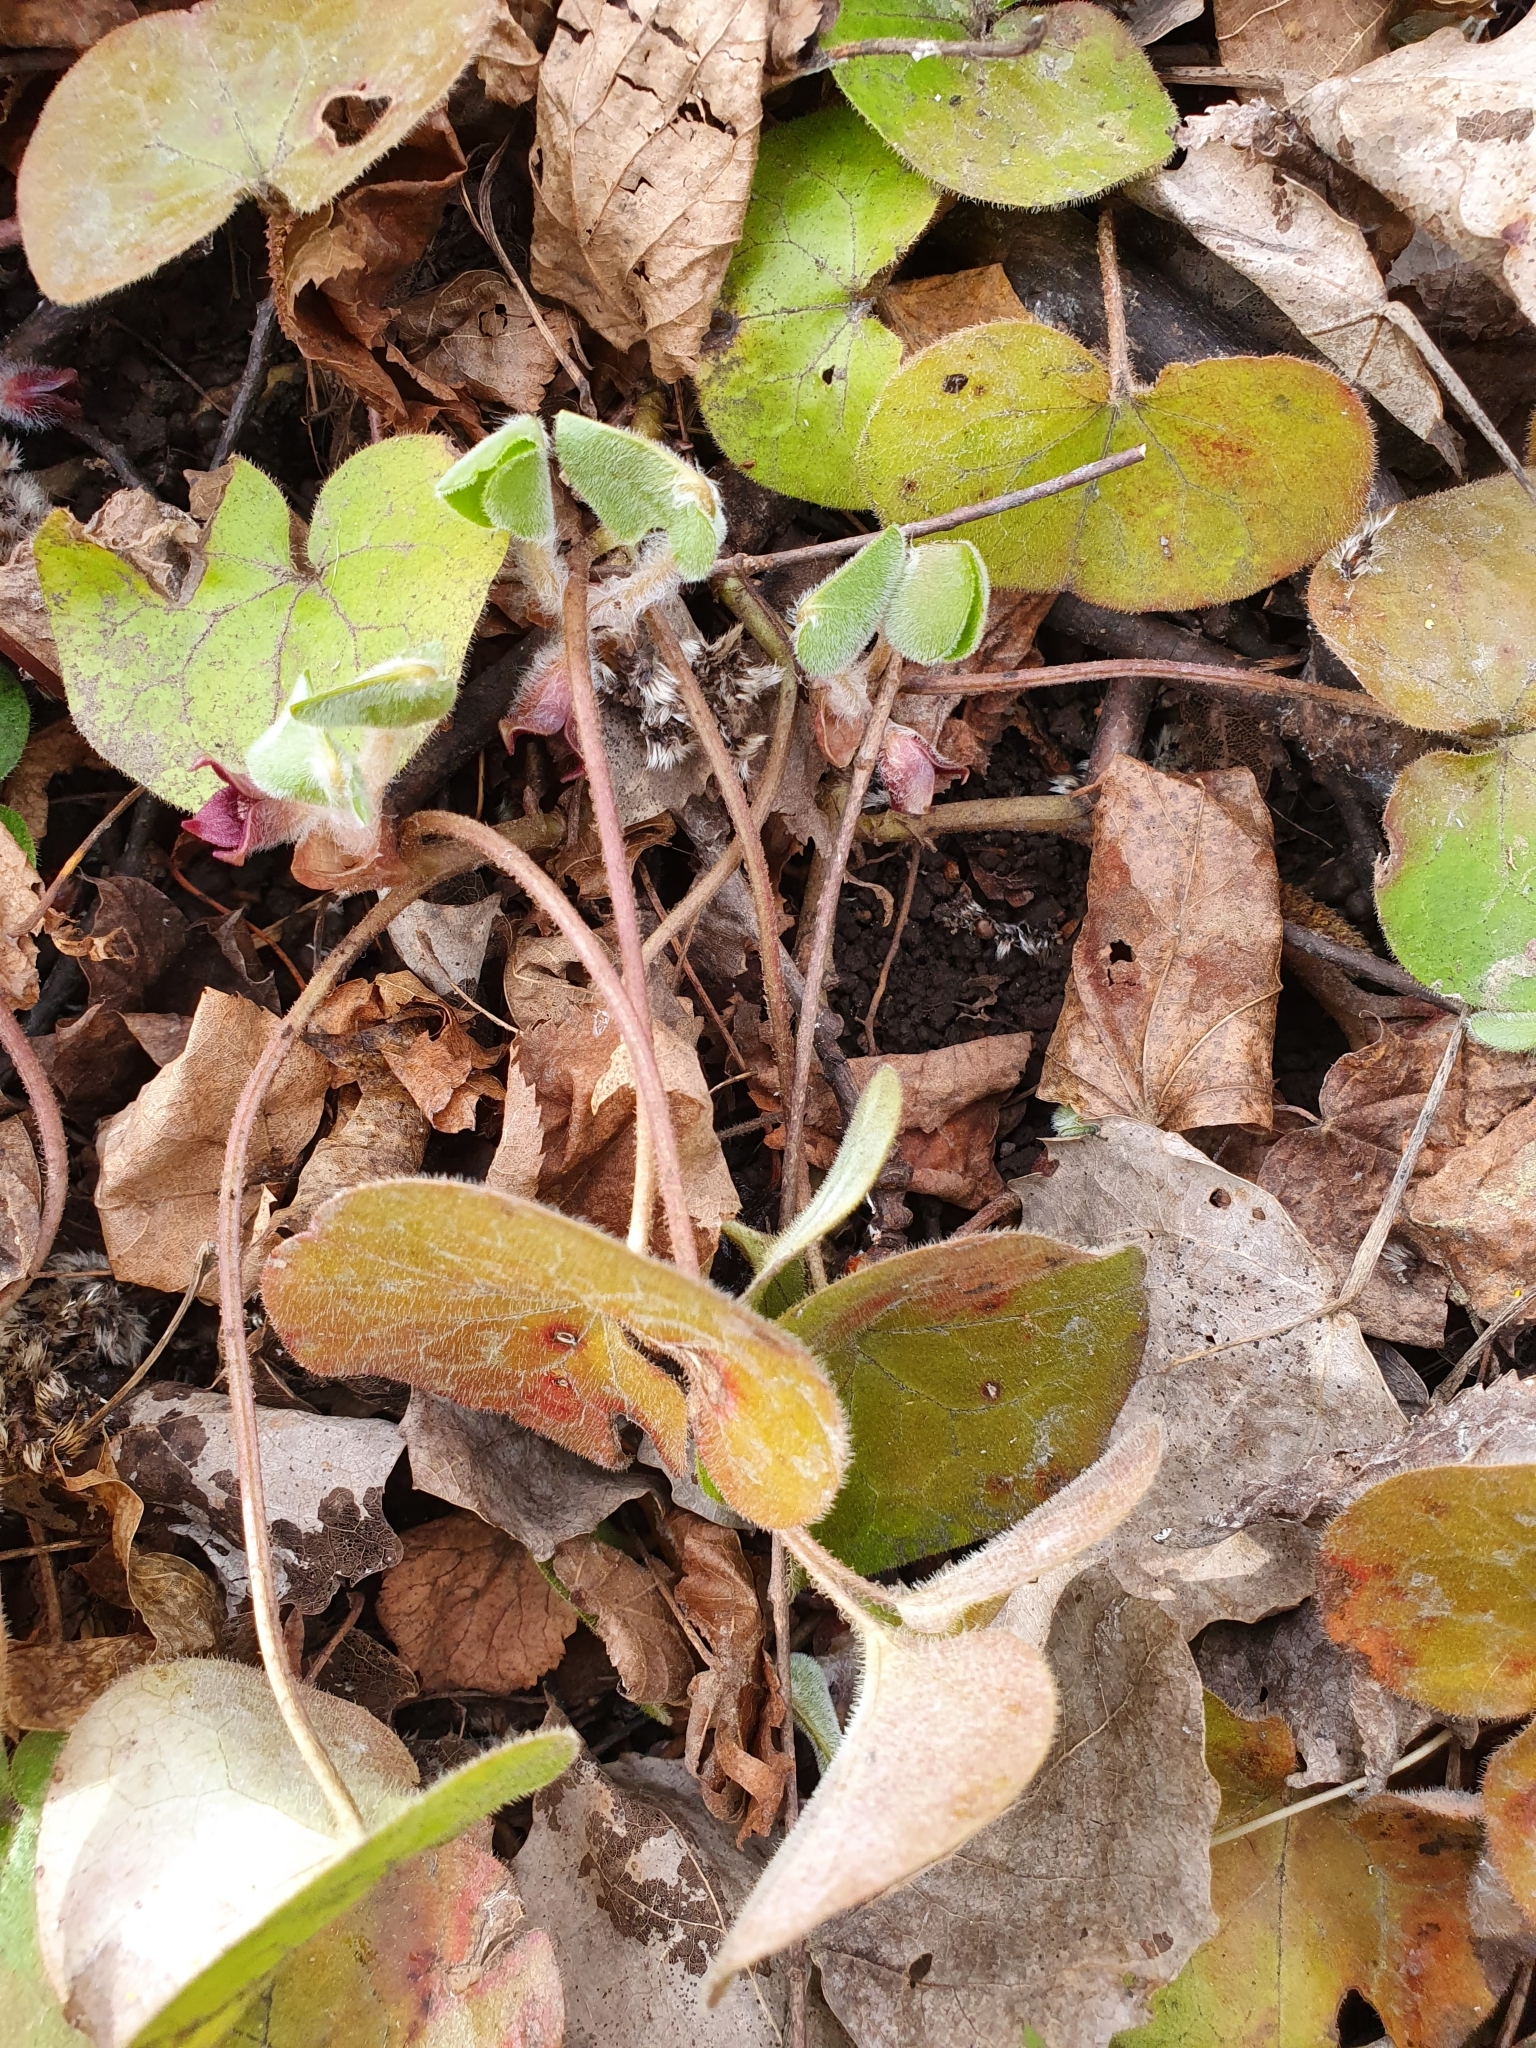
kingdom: Plantae
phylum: Tracheophyta
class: Magnoliopsida
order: Piperales
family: Aristolochiaceae
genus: Asarum
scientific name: Asarum europaeum
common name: Asarabacca
